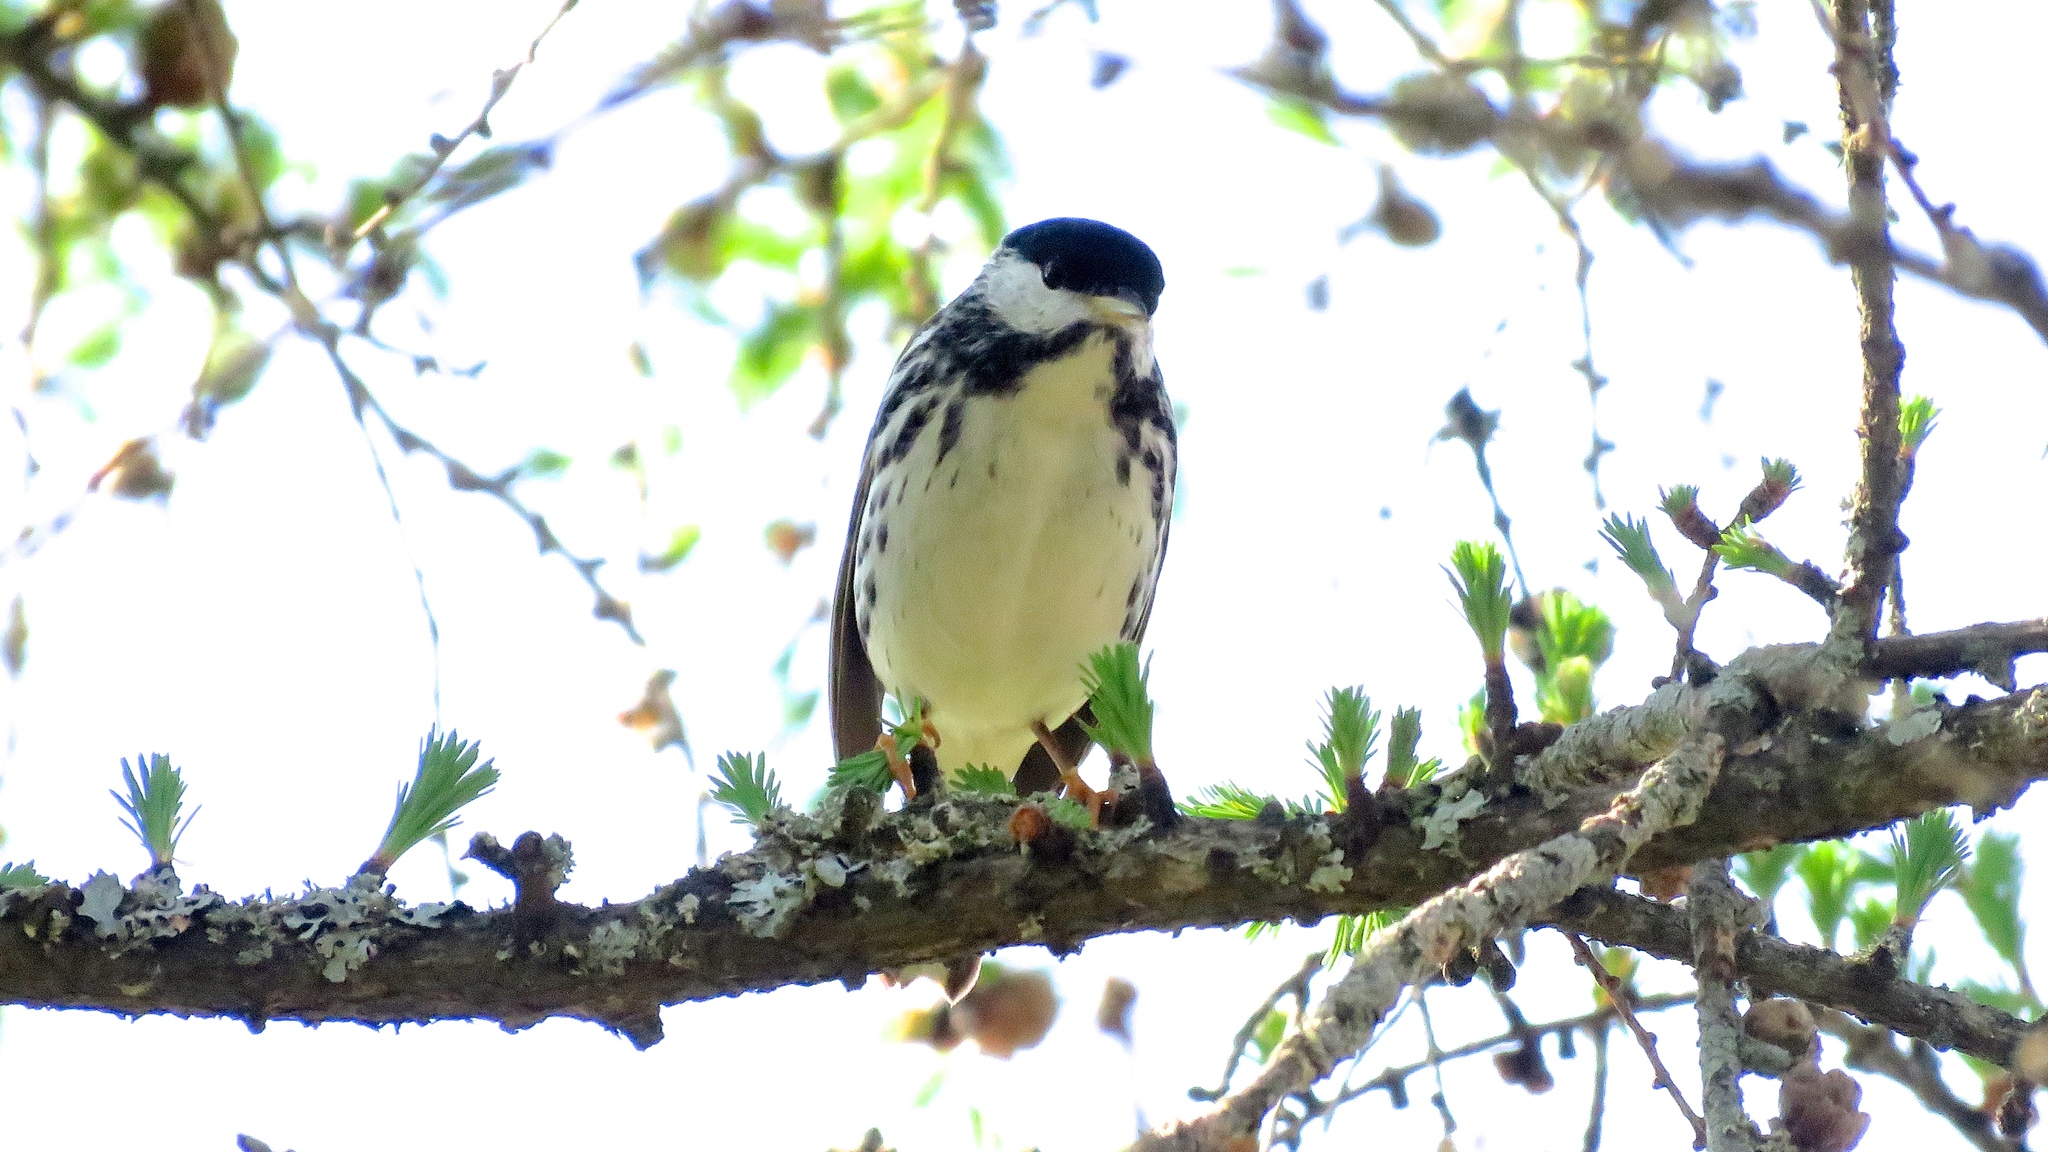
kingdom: Animalia
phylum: Chordata
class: Aves
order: Passeriformes
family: Parulidae
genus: Setophaga
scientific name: Setophaga striata
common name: Blackpoll warbler
